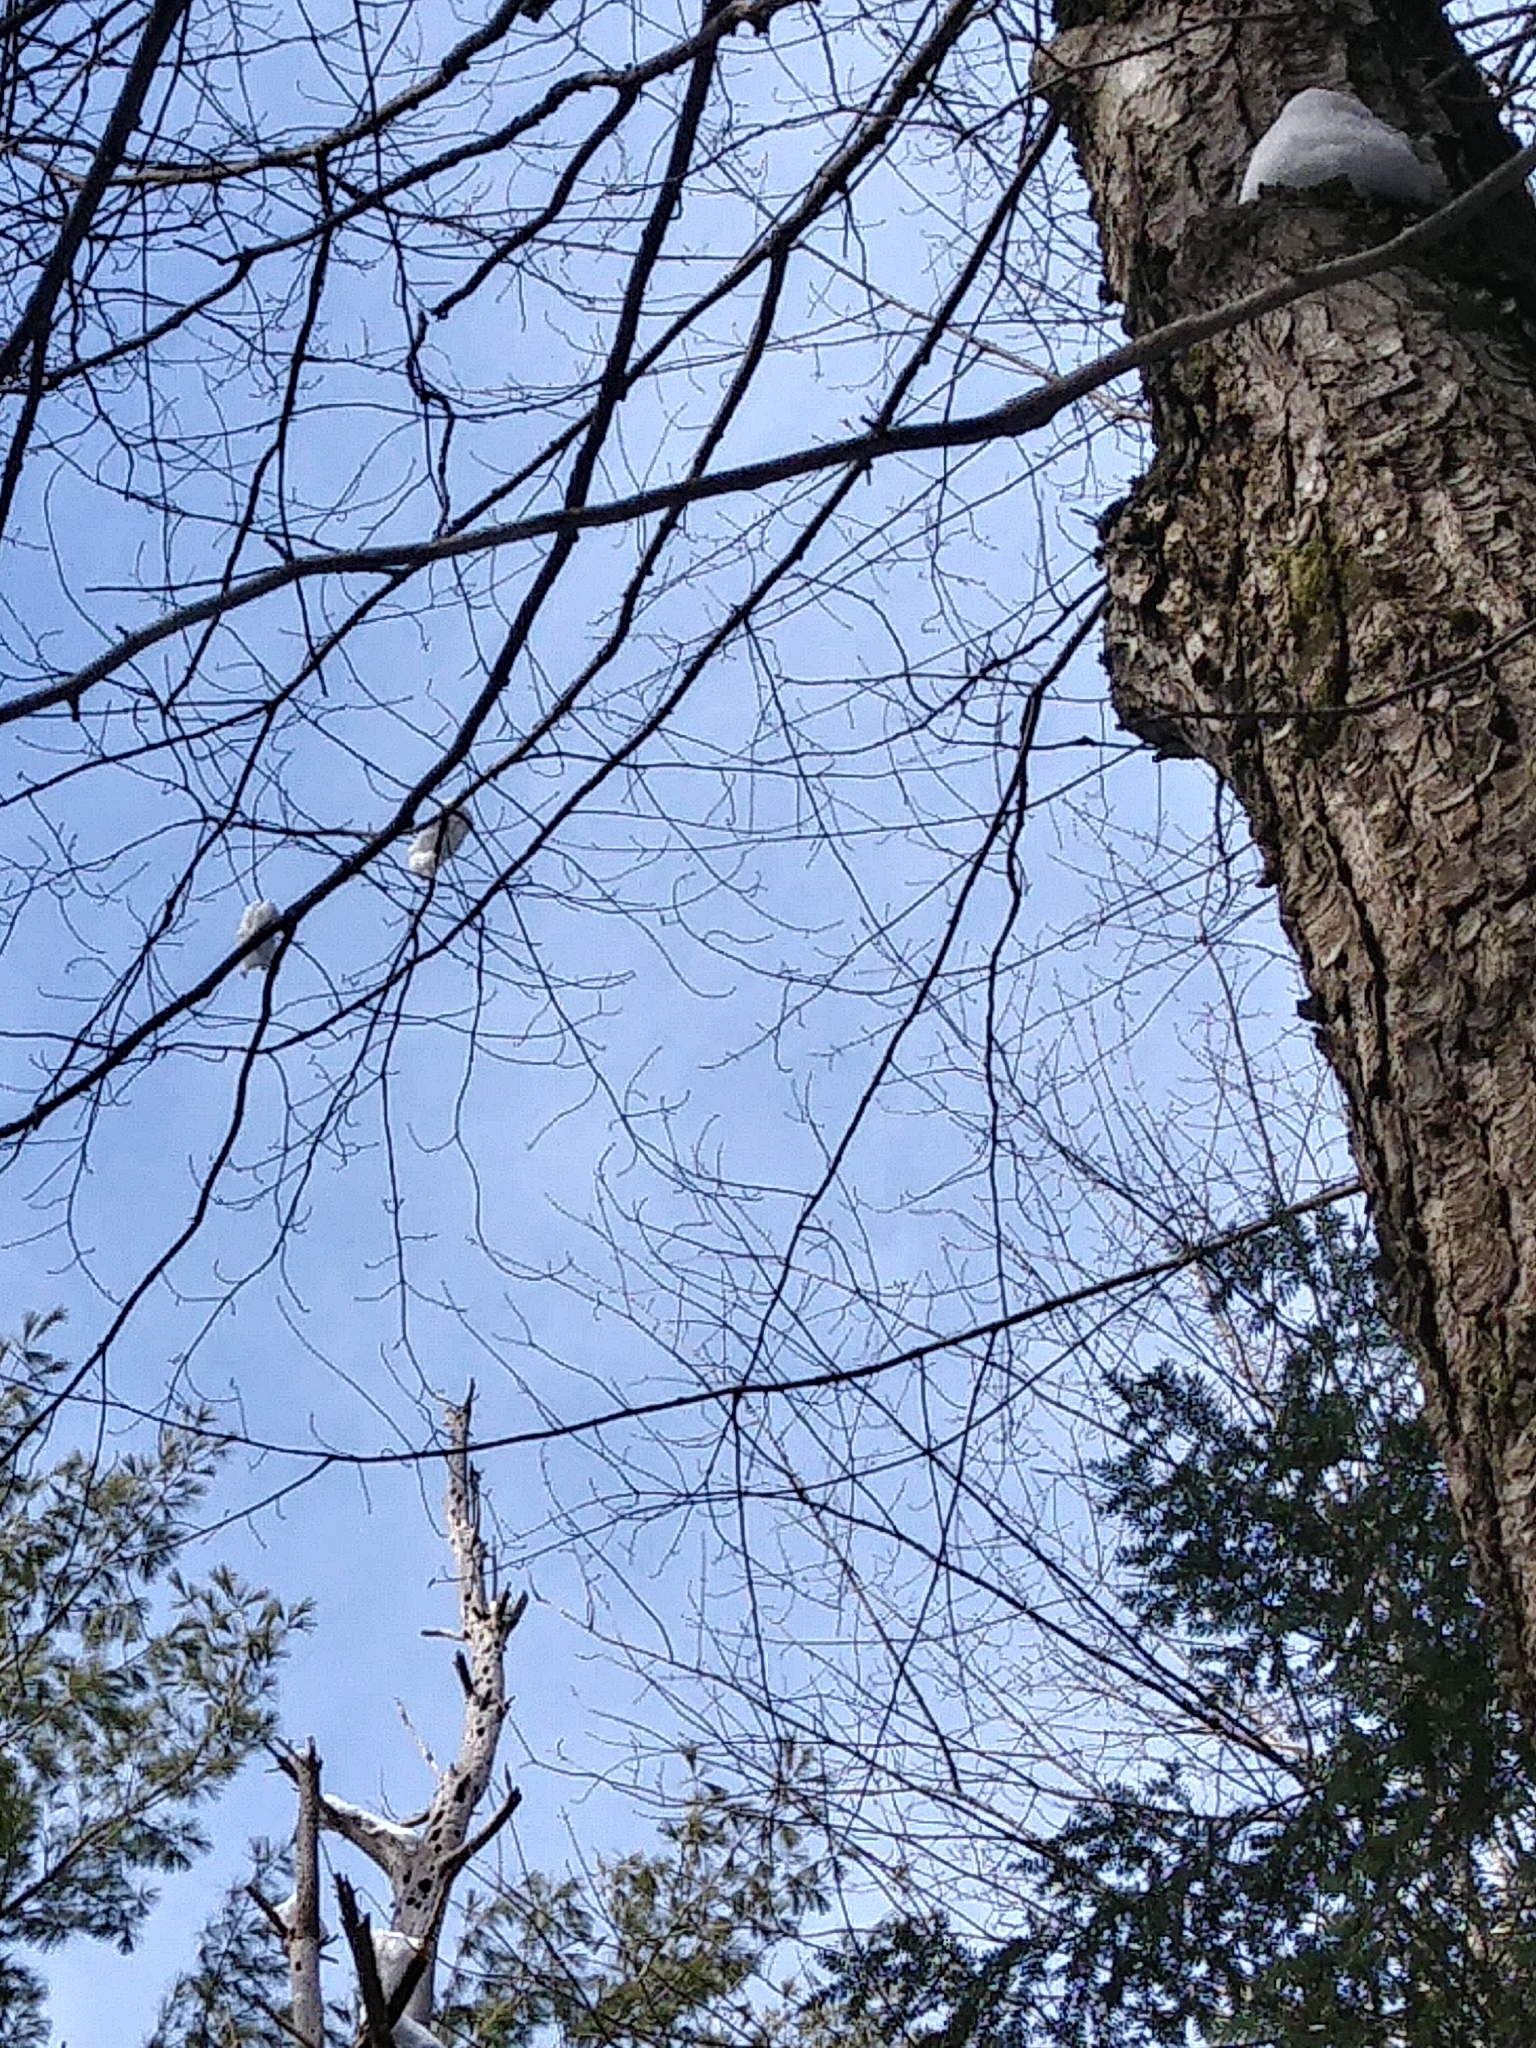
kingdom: Plantae
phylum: Tracheophyta
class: Magnoliopsida
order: Sapindales
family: Sapindaceae
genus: Acer
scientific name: Acer rubrum
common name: Red maple
